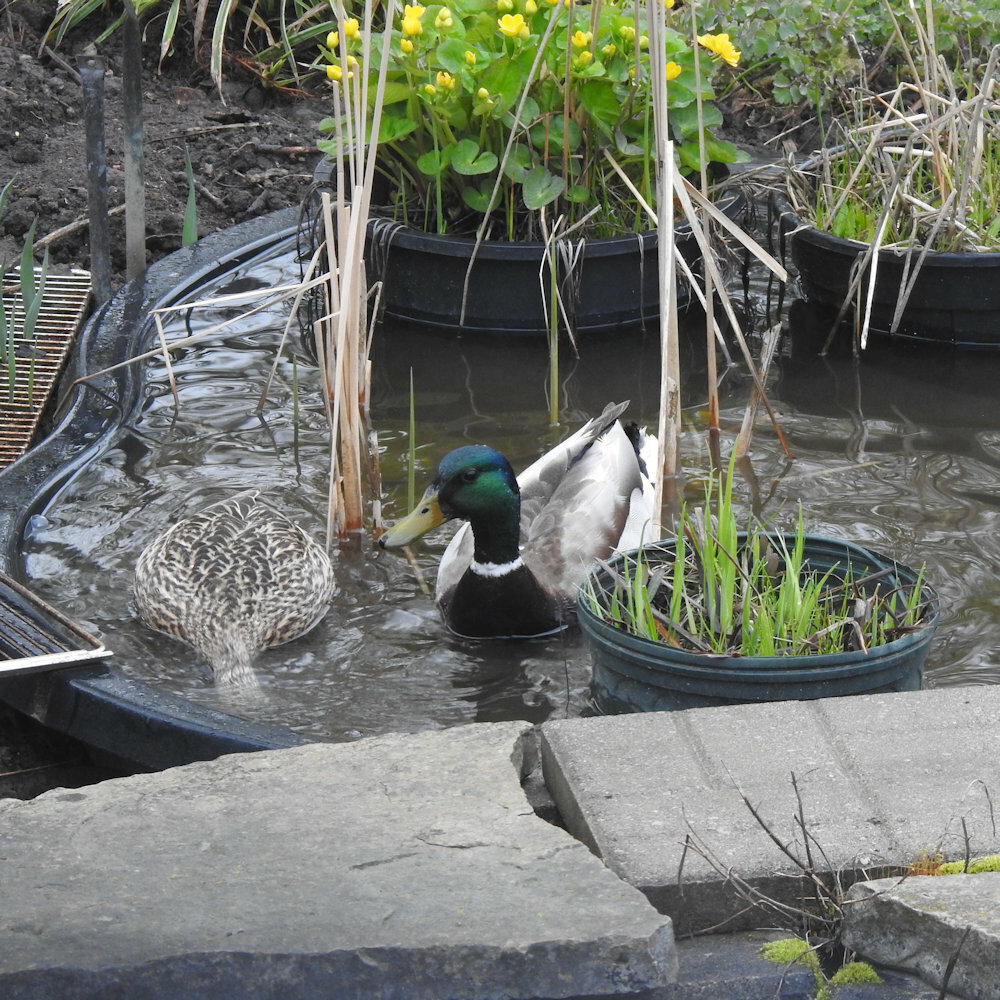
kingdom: Animalia
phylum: Chordata
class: Aves
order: Anseriformes
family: Anatidae
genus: Anas
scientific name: Anas platyrhynchos
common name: Mallard
